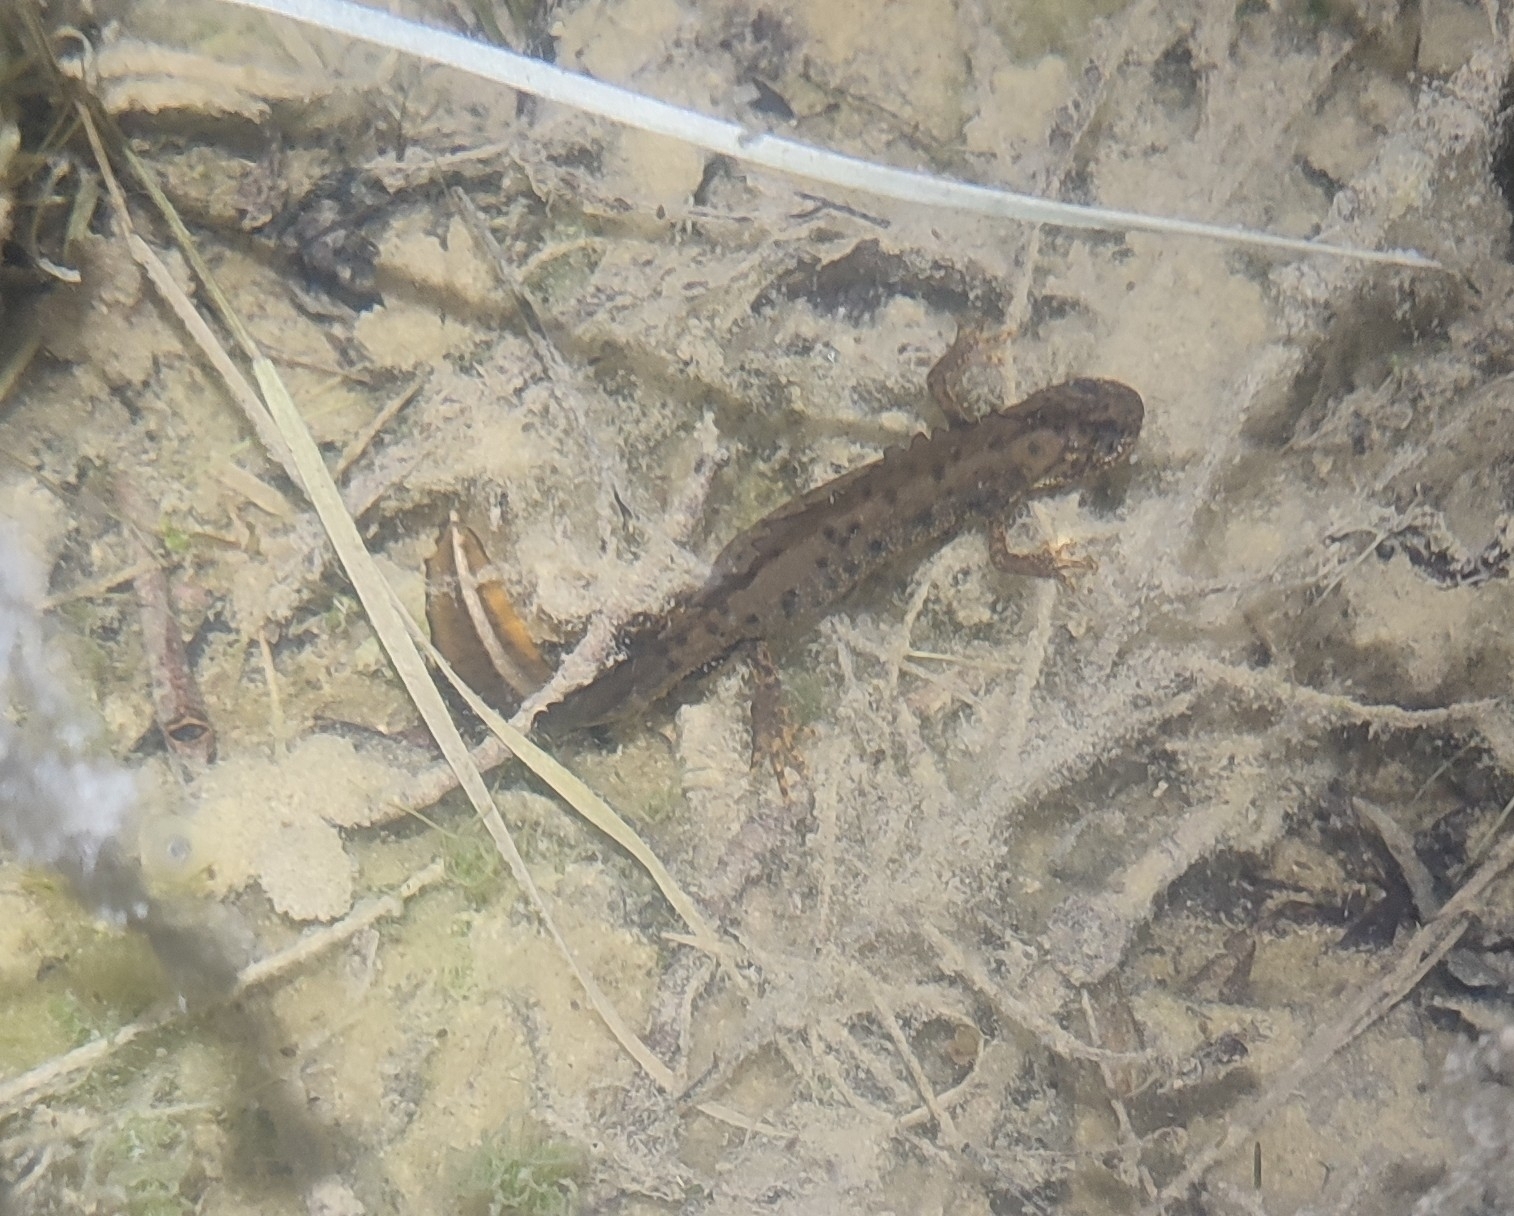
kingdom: Animalia
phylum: Chordata
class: Amphibia
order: Caudata
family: Salamandridae
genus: Triturus
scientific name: Triturus cristatus
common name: Crested newt
